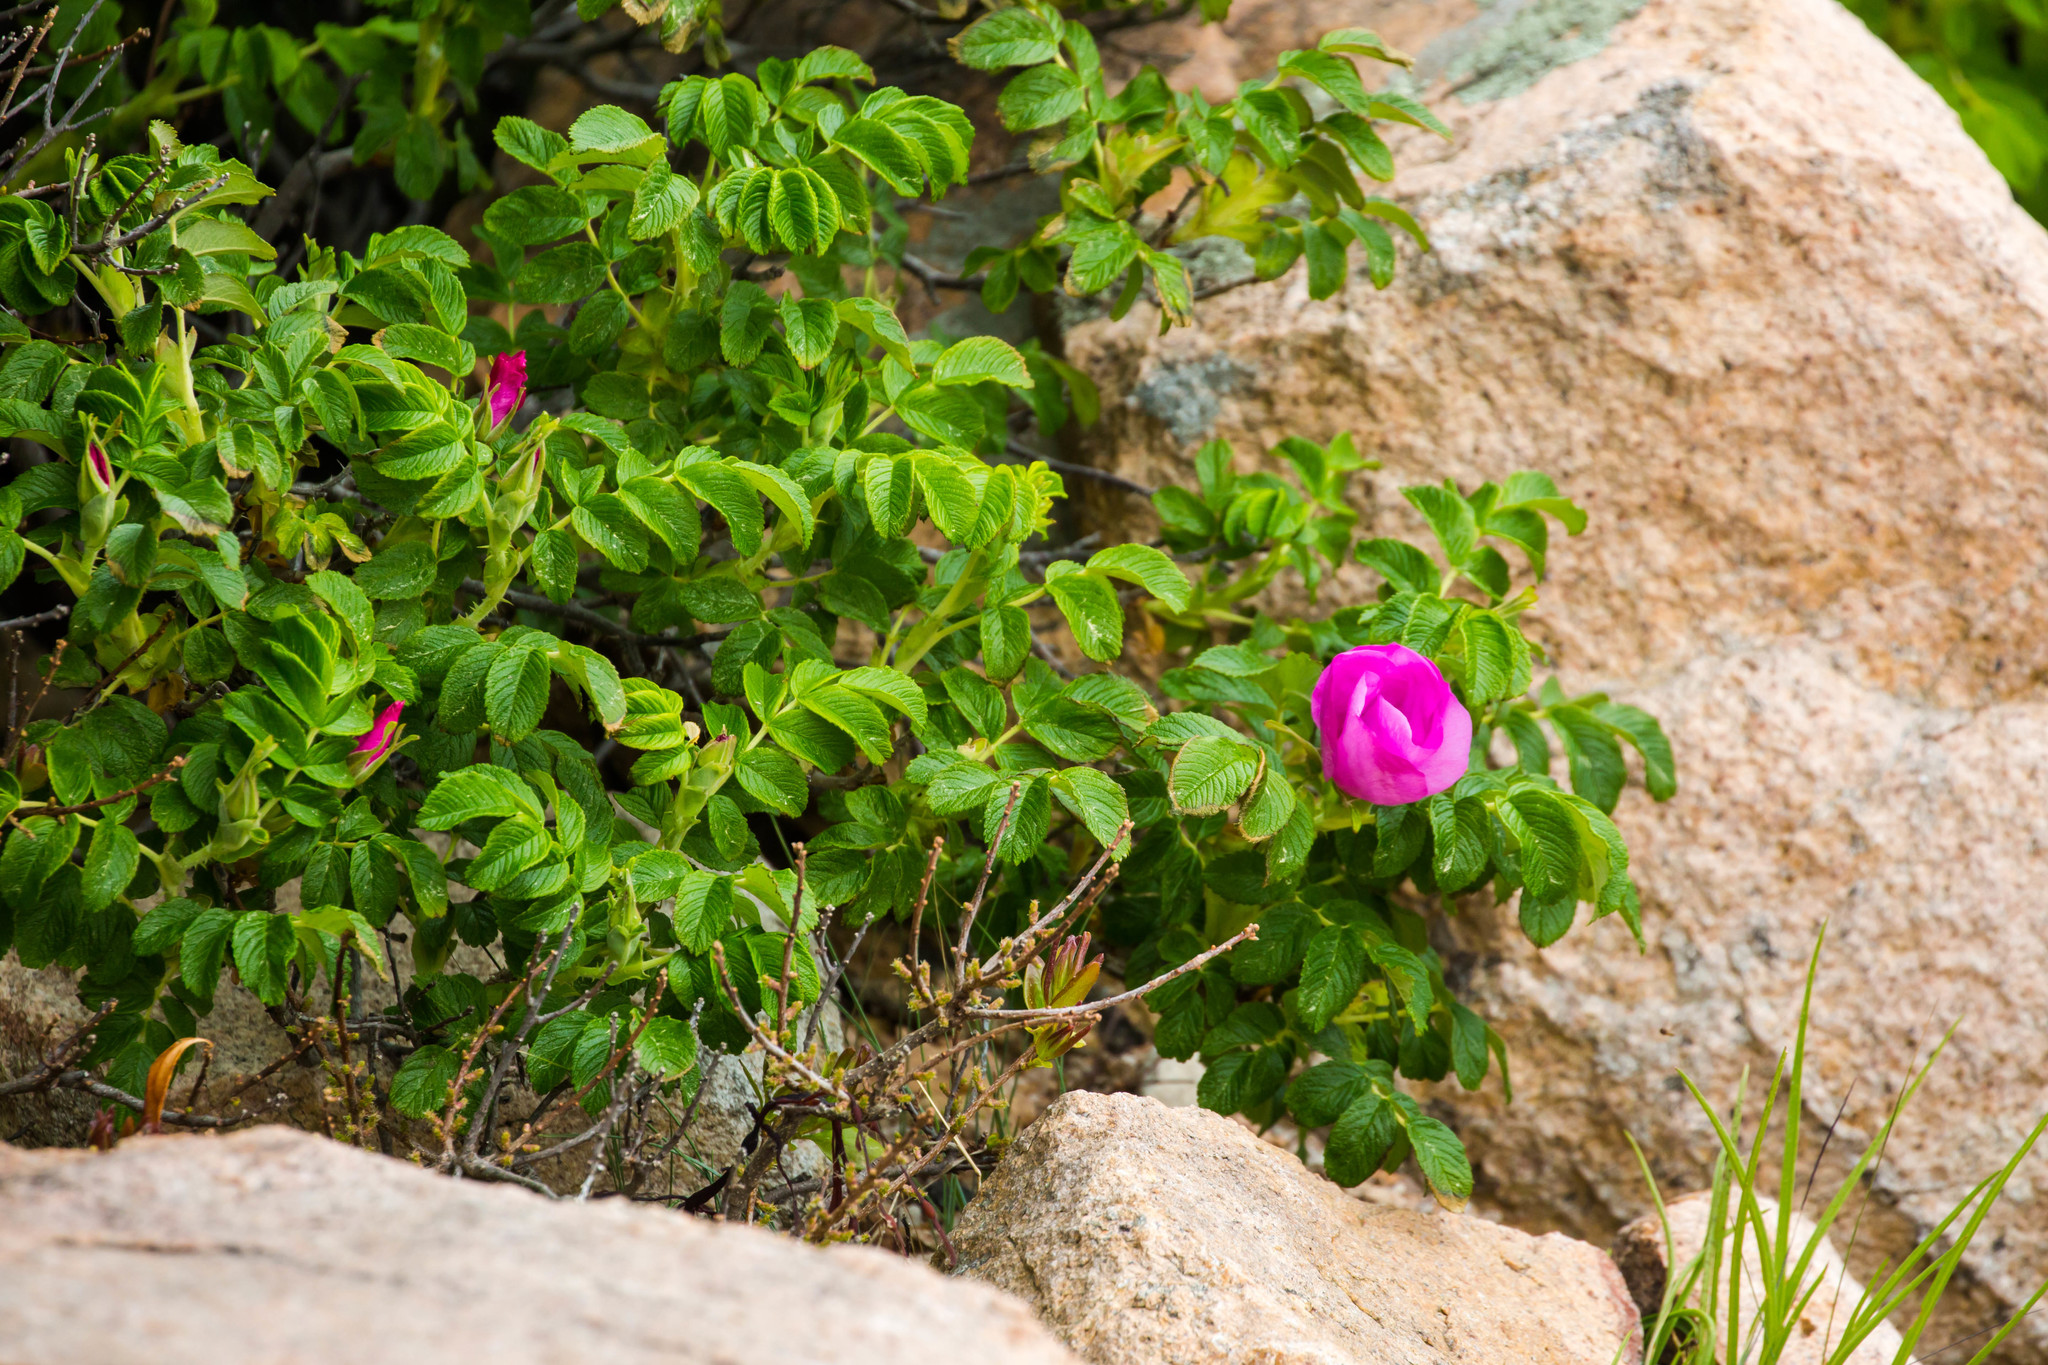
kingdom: Plantae
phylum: Tracheophyta
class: Magnoliopsida
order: Rosales
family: Rosaceae
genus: Rosa
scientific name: Rosa rugosa
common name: Japanese rose
